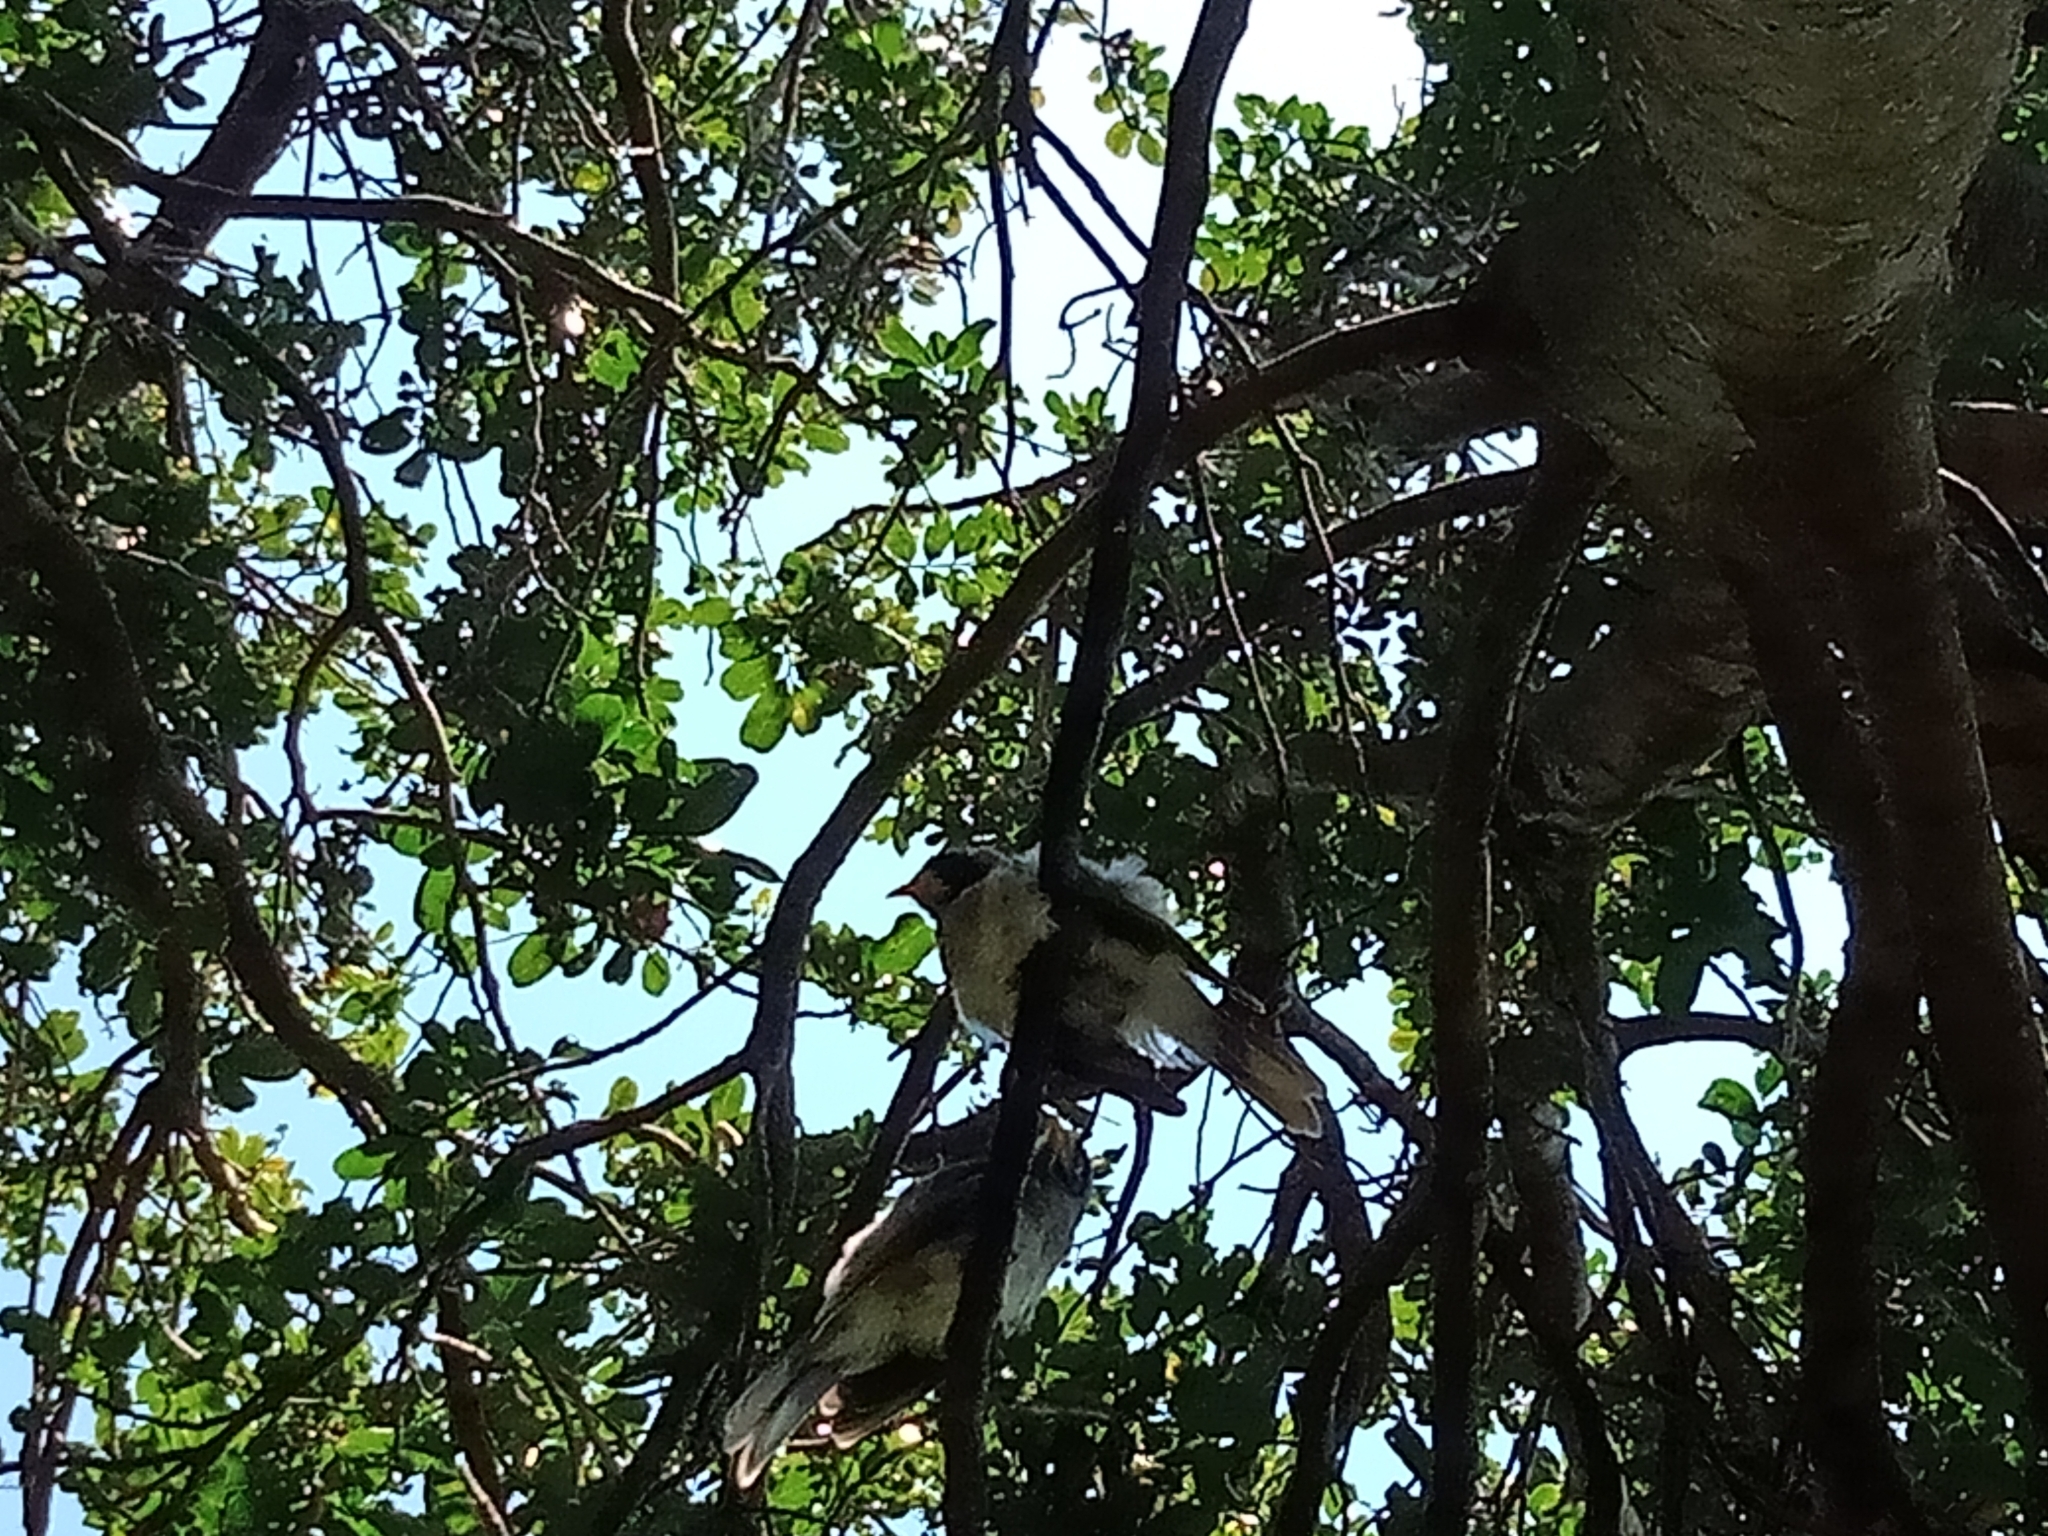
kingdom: Animalia
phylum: Chordata
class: Aves
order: Passeriformes
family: Meliphagidae
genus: Manorina
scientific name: Manorina melanocephala
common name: Noisy miner
